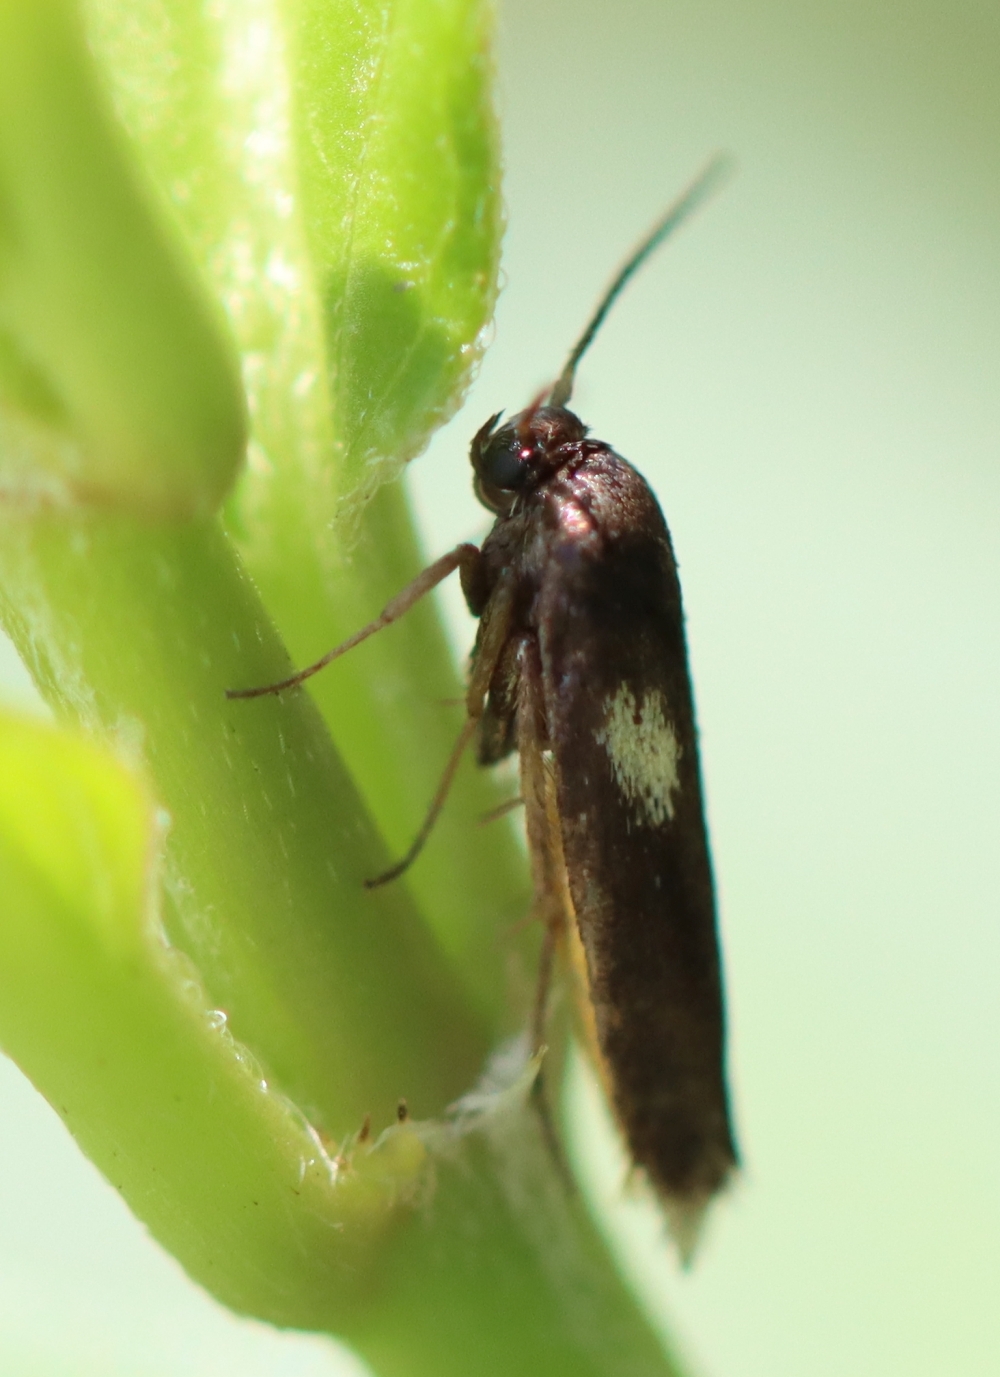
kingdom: Animalia
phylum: Arthropoda
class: Insecta
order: Lepidoptera
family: Scythrididae
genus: Scythris
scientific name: Scythris sinensis
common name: Kentish owlet
